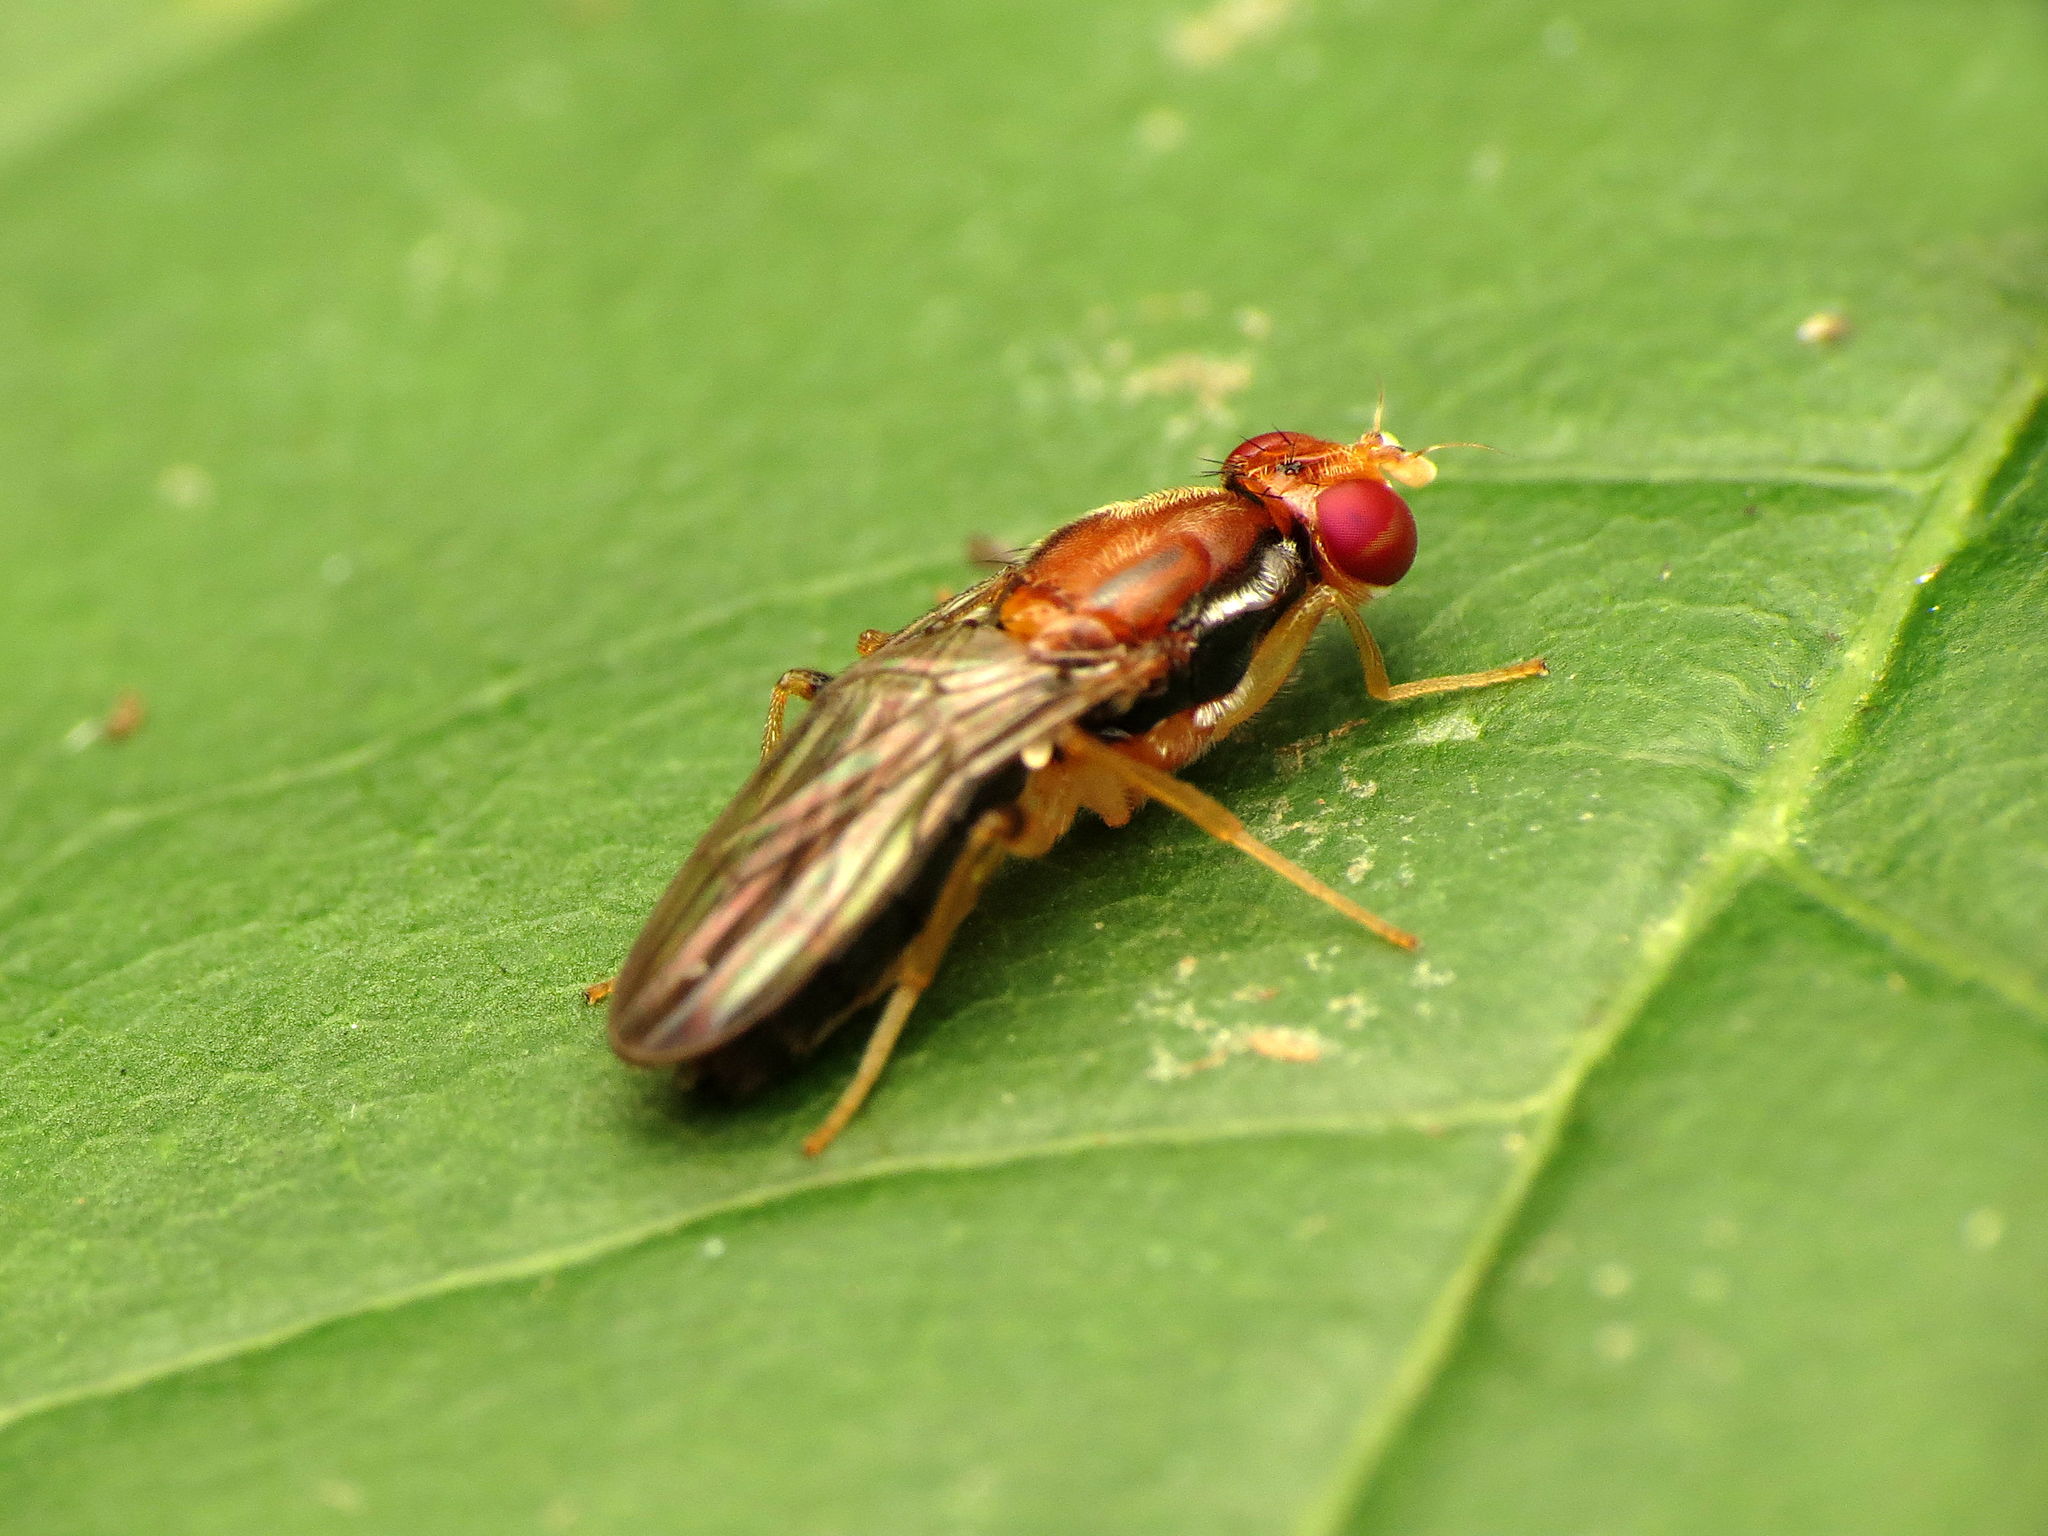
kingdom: Animalia
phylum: Arthropoda
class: Insecta
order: Diptera
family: Psilidae
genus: Chyliza
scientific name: Chyliza apicalis
